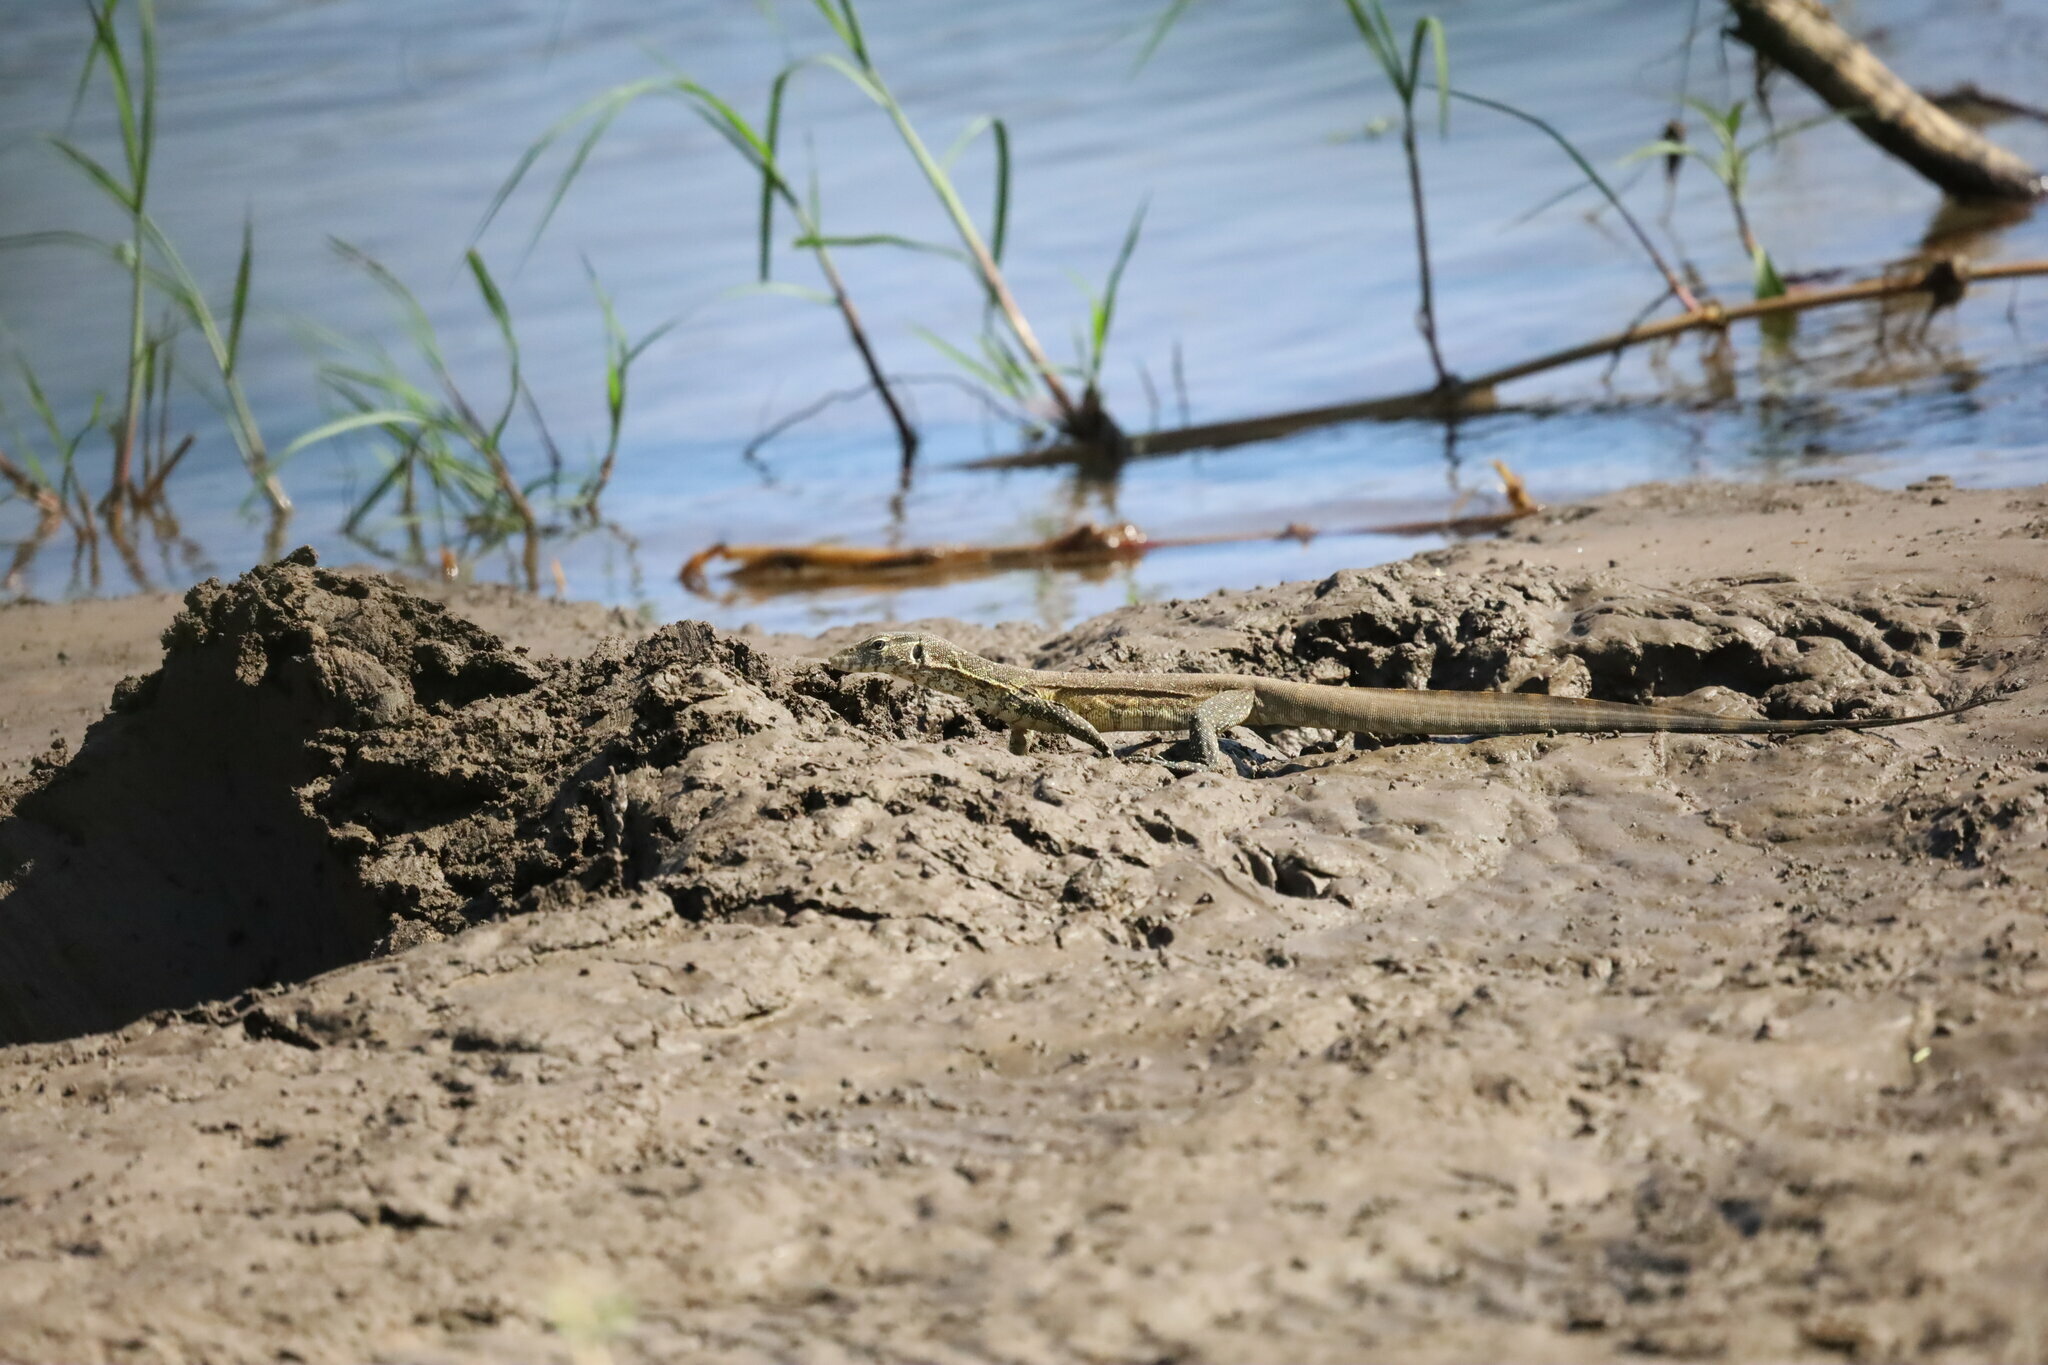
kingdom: Animalia
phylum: Chordata
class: Squamata
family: Varanidae
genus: Varanus
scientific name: Varanus niloticus
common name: Nile monitor
